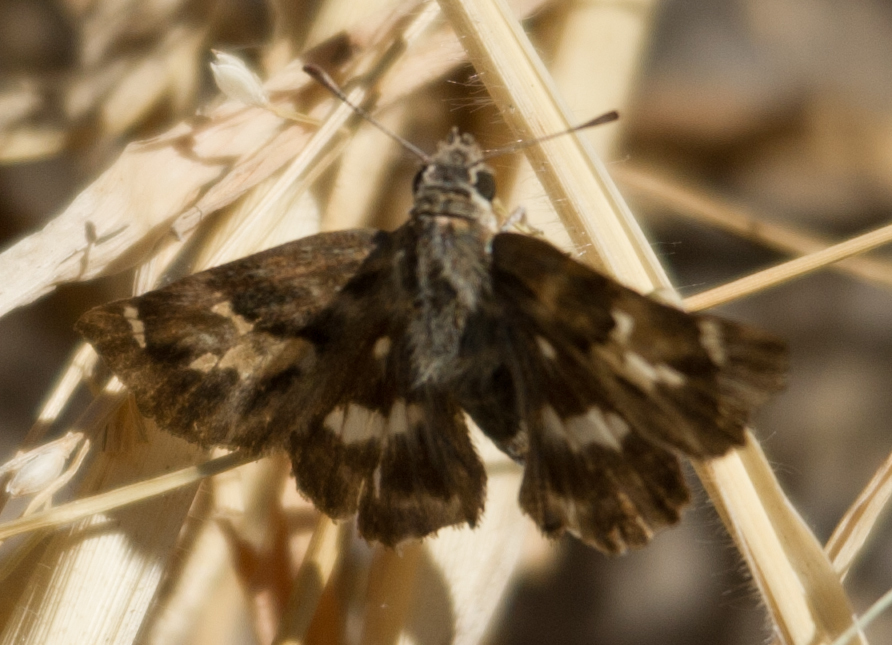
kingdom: Animalia
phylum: Arthropoda
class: Insecta
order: Lepidoptera
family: Hesperiidae
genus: Gomalia
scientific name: Gomalia elma
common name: Green-marbled skipper
